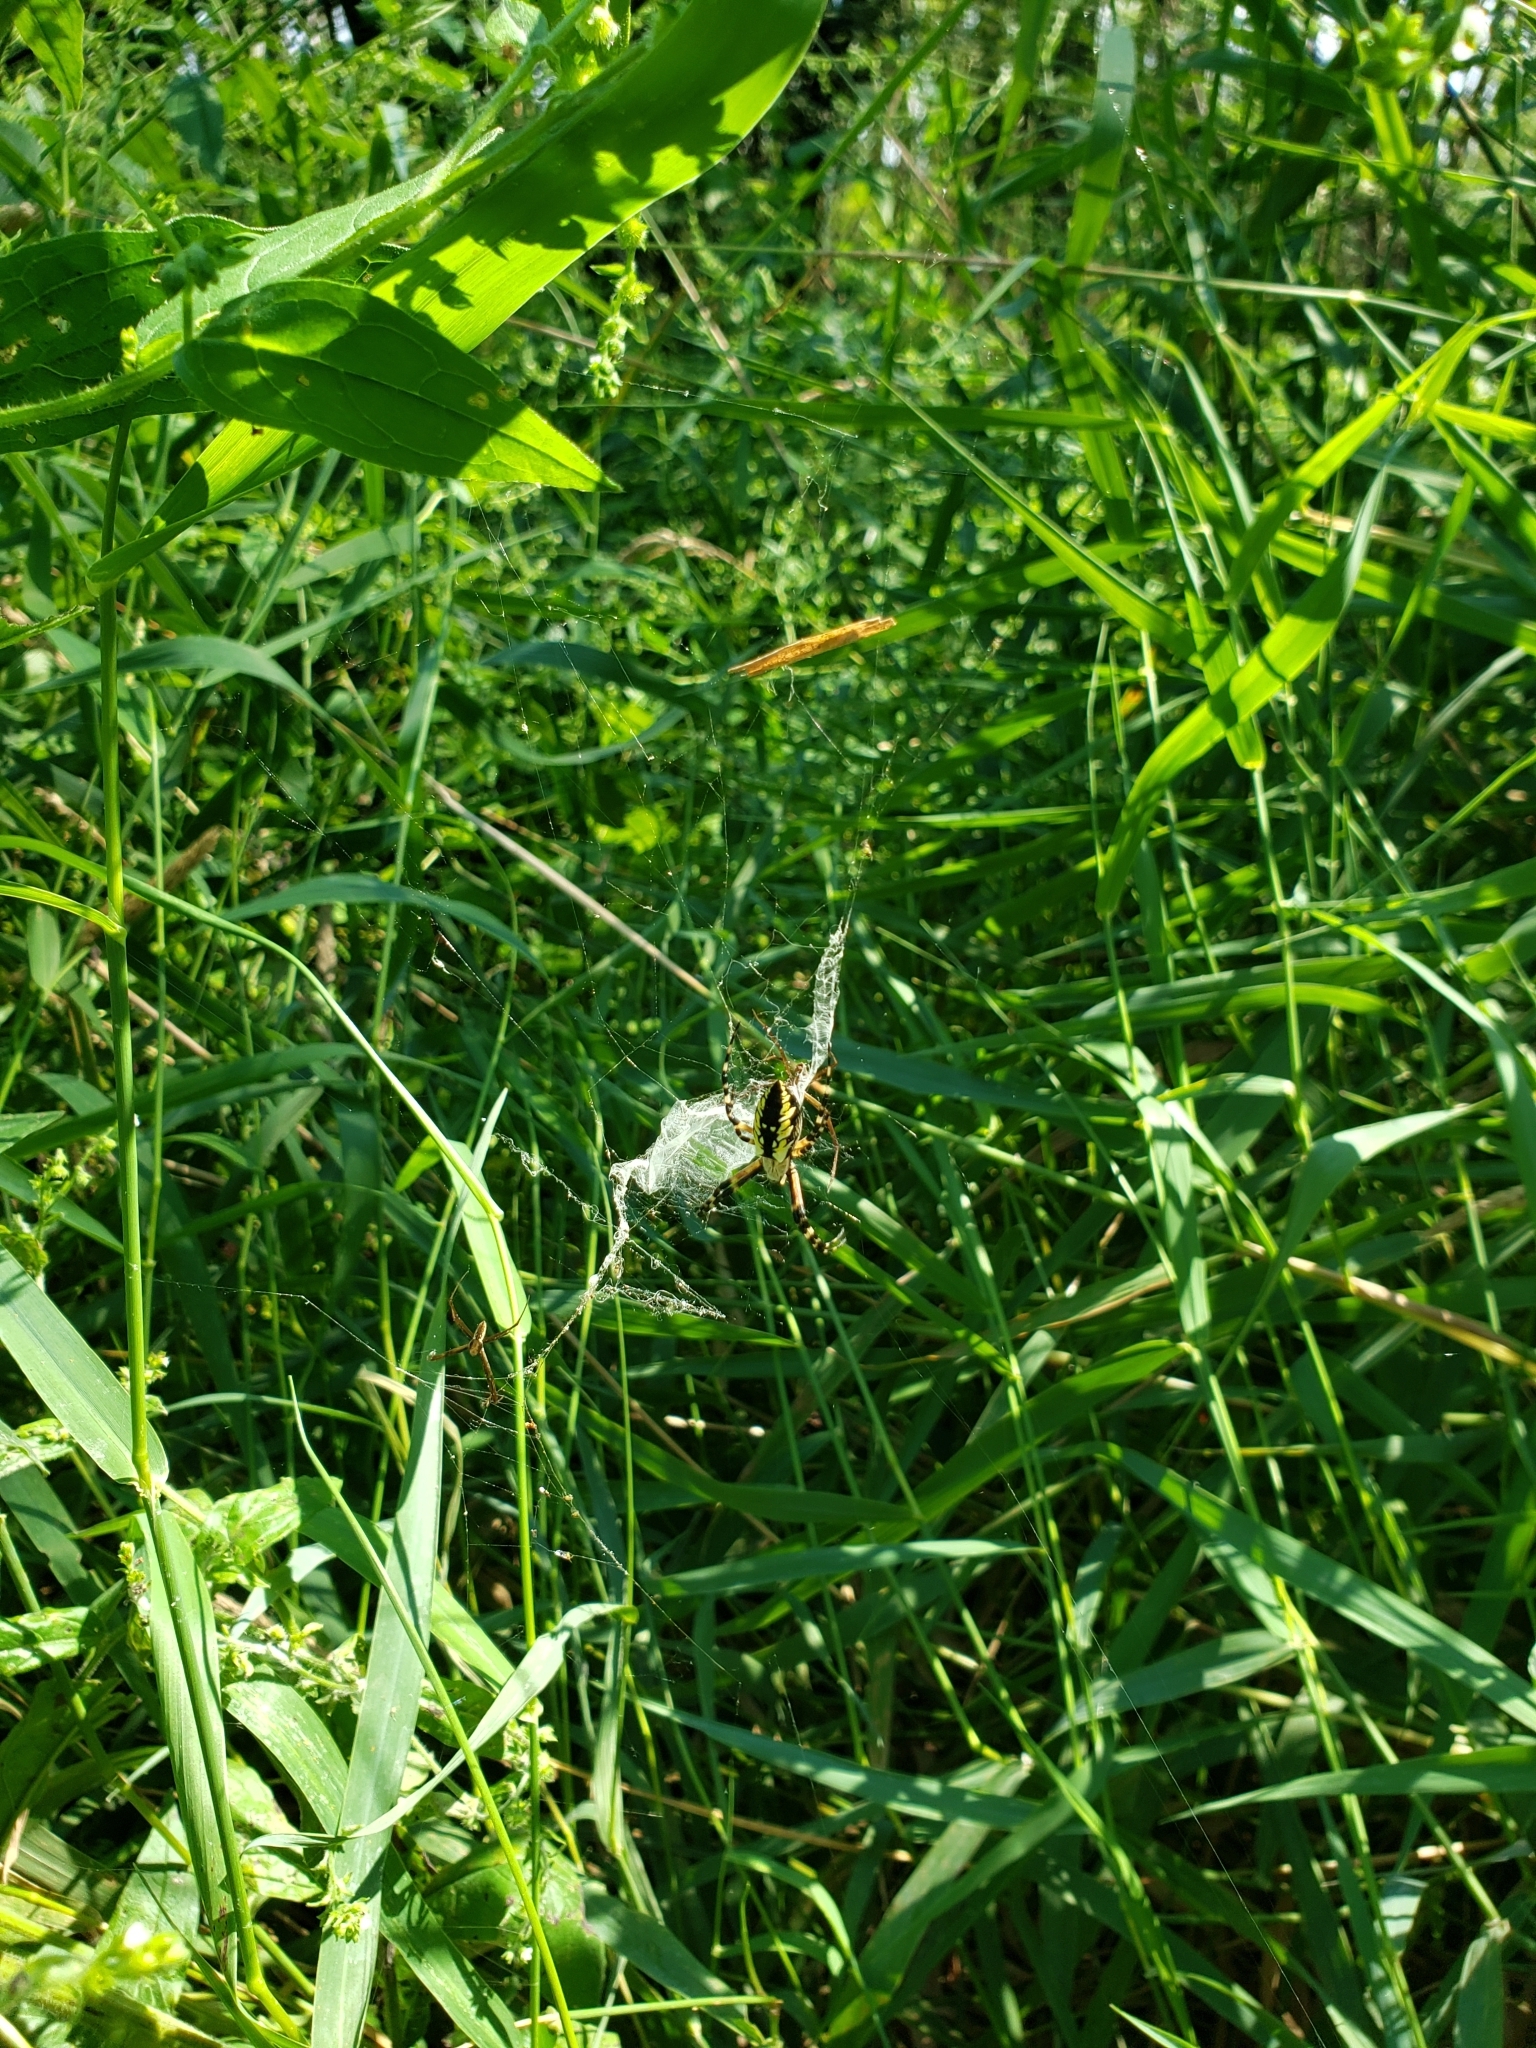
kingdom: Animalia
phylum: Arthropoda
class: Arachnida
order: Araneae
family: Araneidae
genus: Argiope
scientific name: Argiope aurantia
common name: Orb weavers
